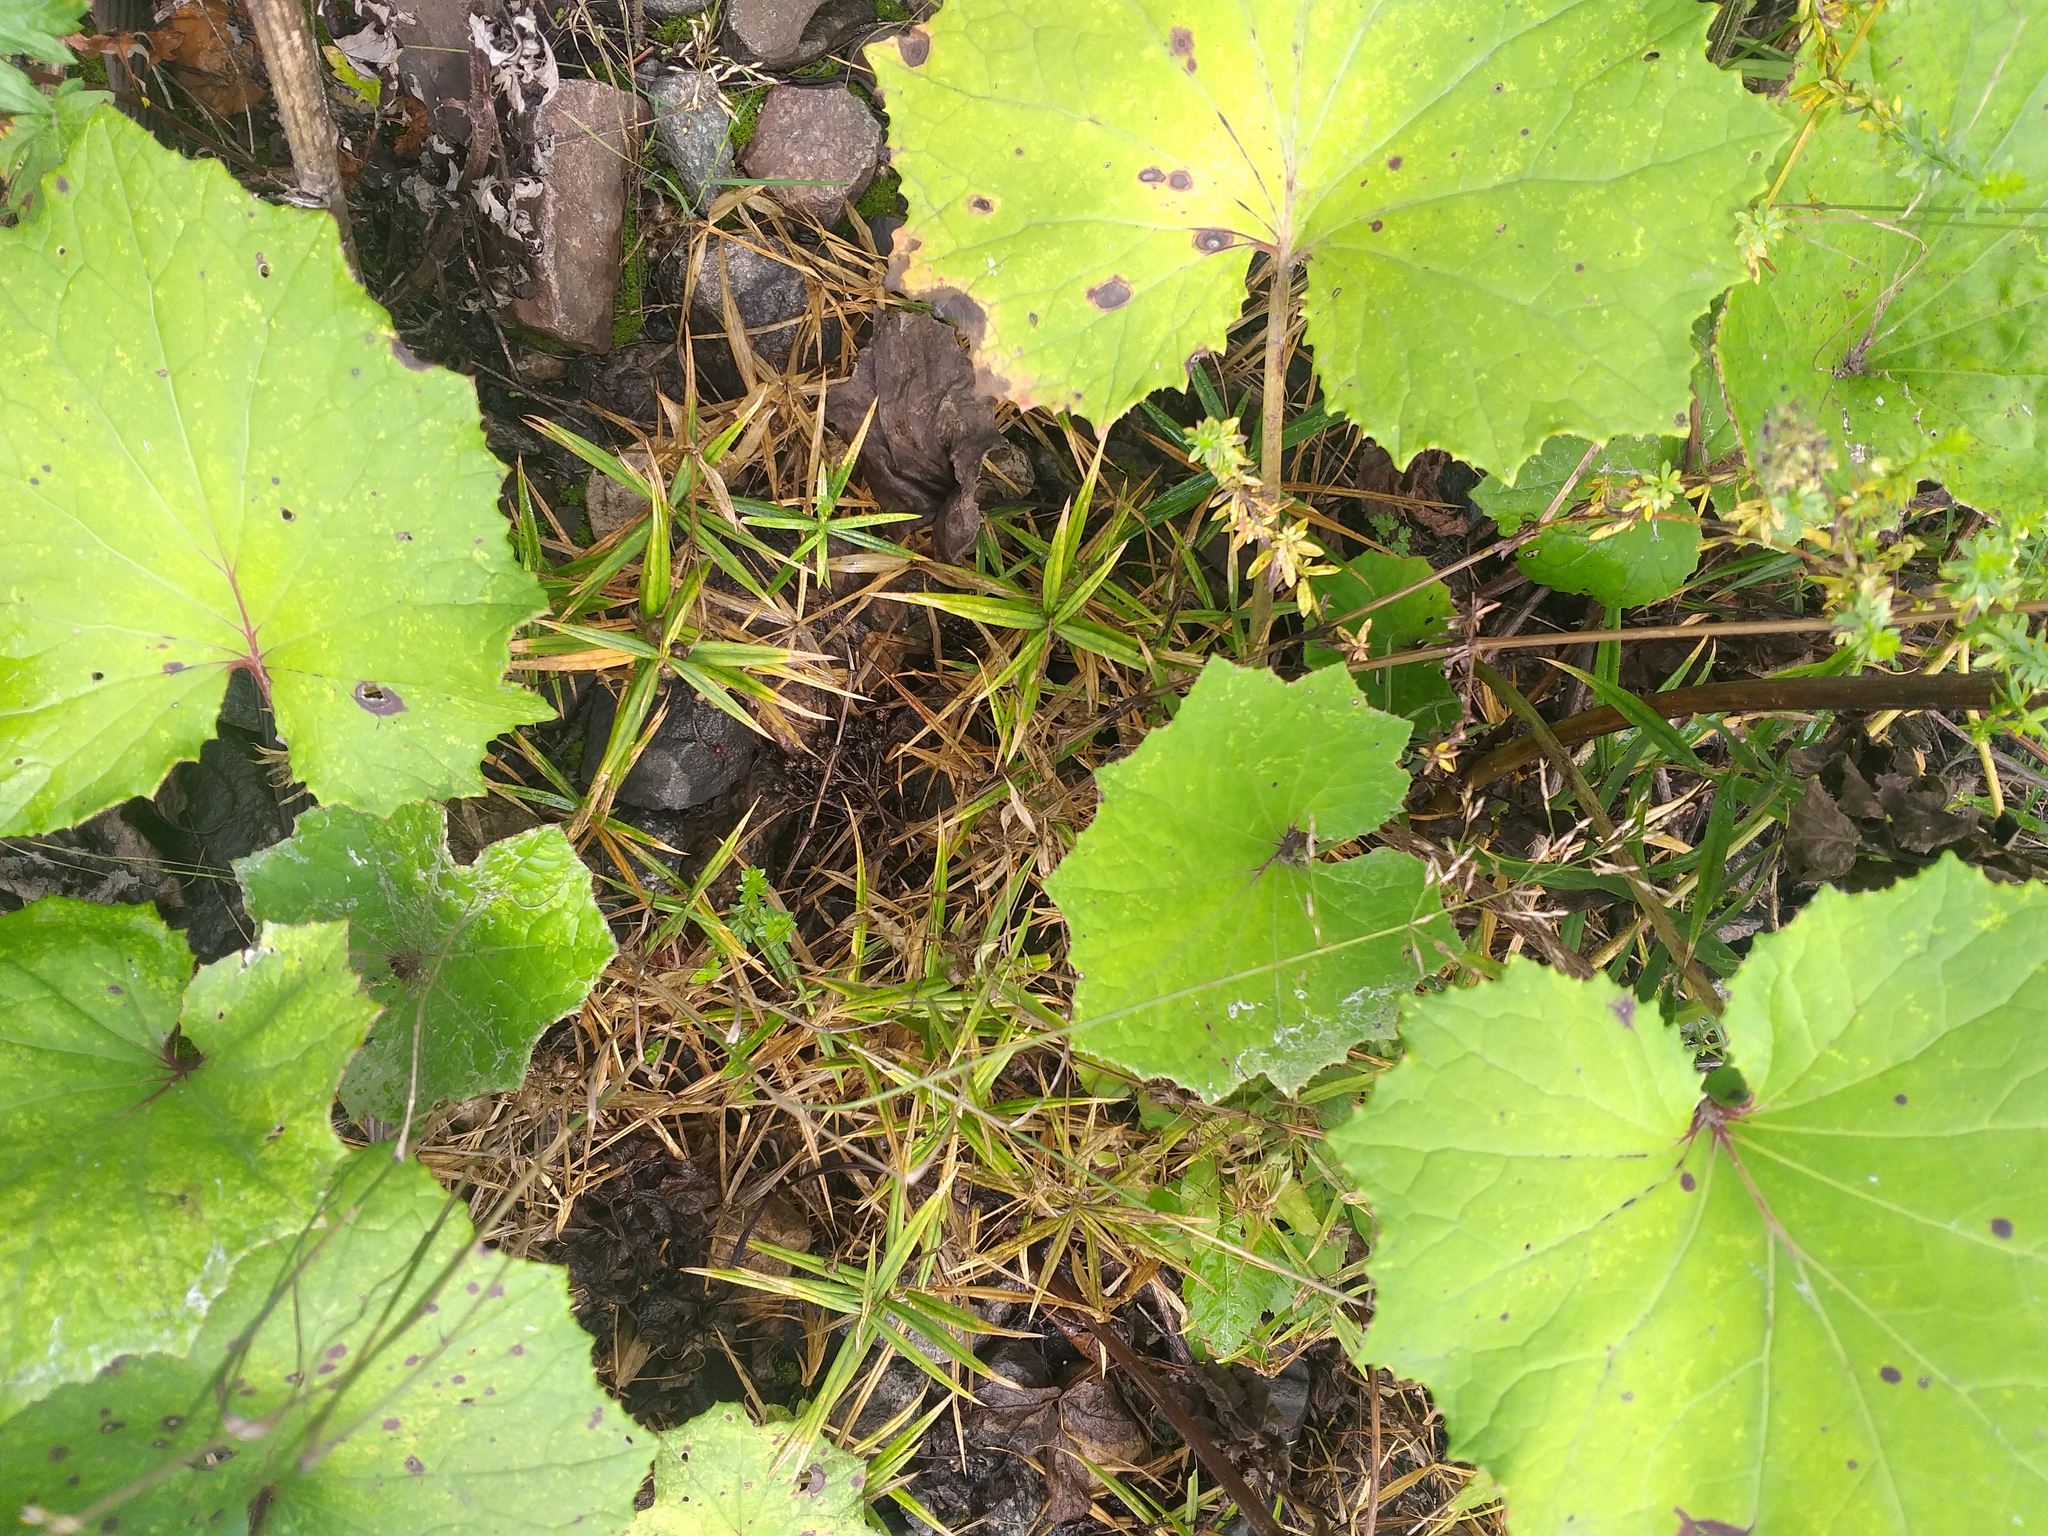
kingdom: Plantae
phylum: Tracheophyta
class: Magnoliopsida
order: Caryophyllales
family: Caryophyllaceae
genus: Rabelera
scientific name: Rabelera holostea
